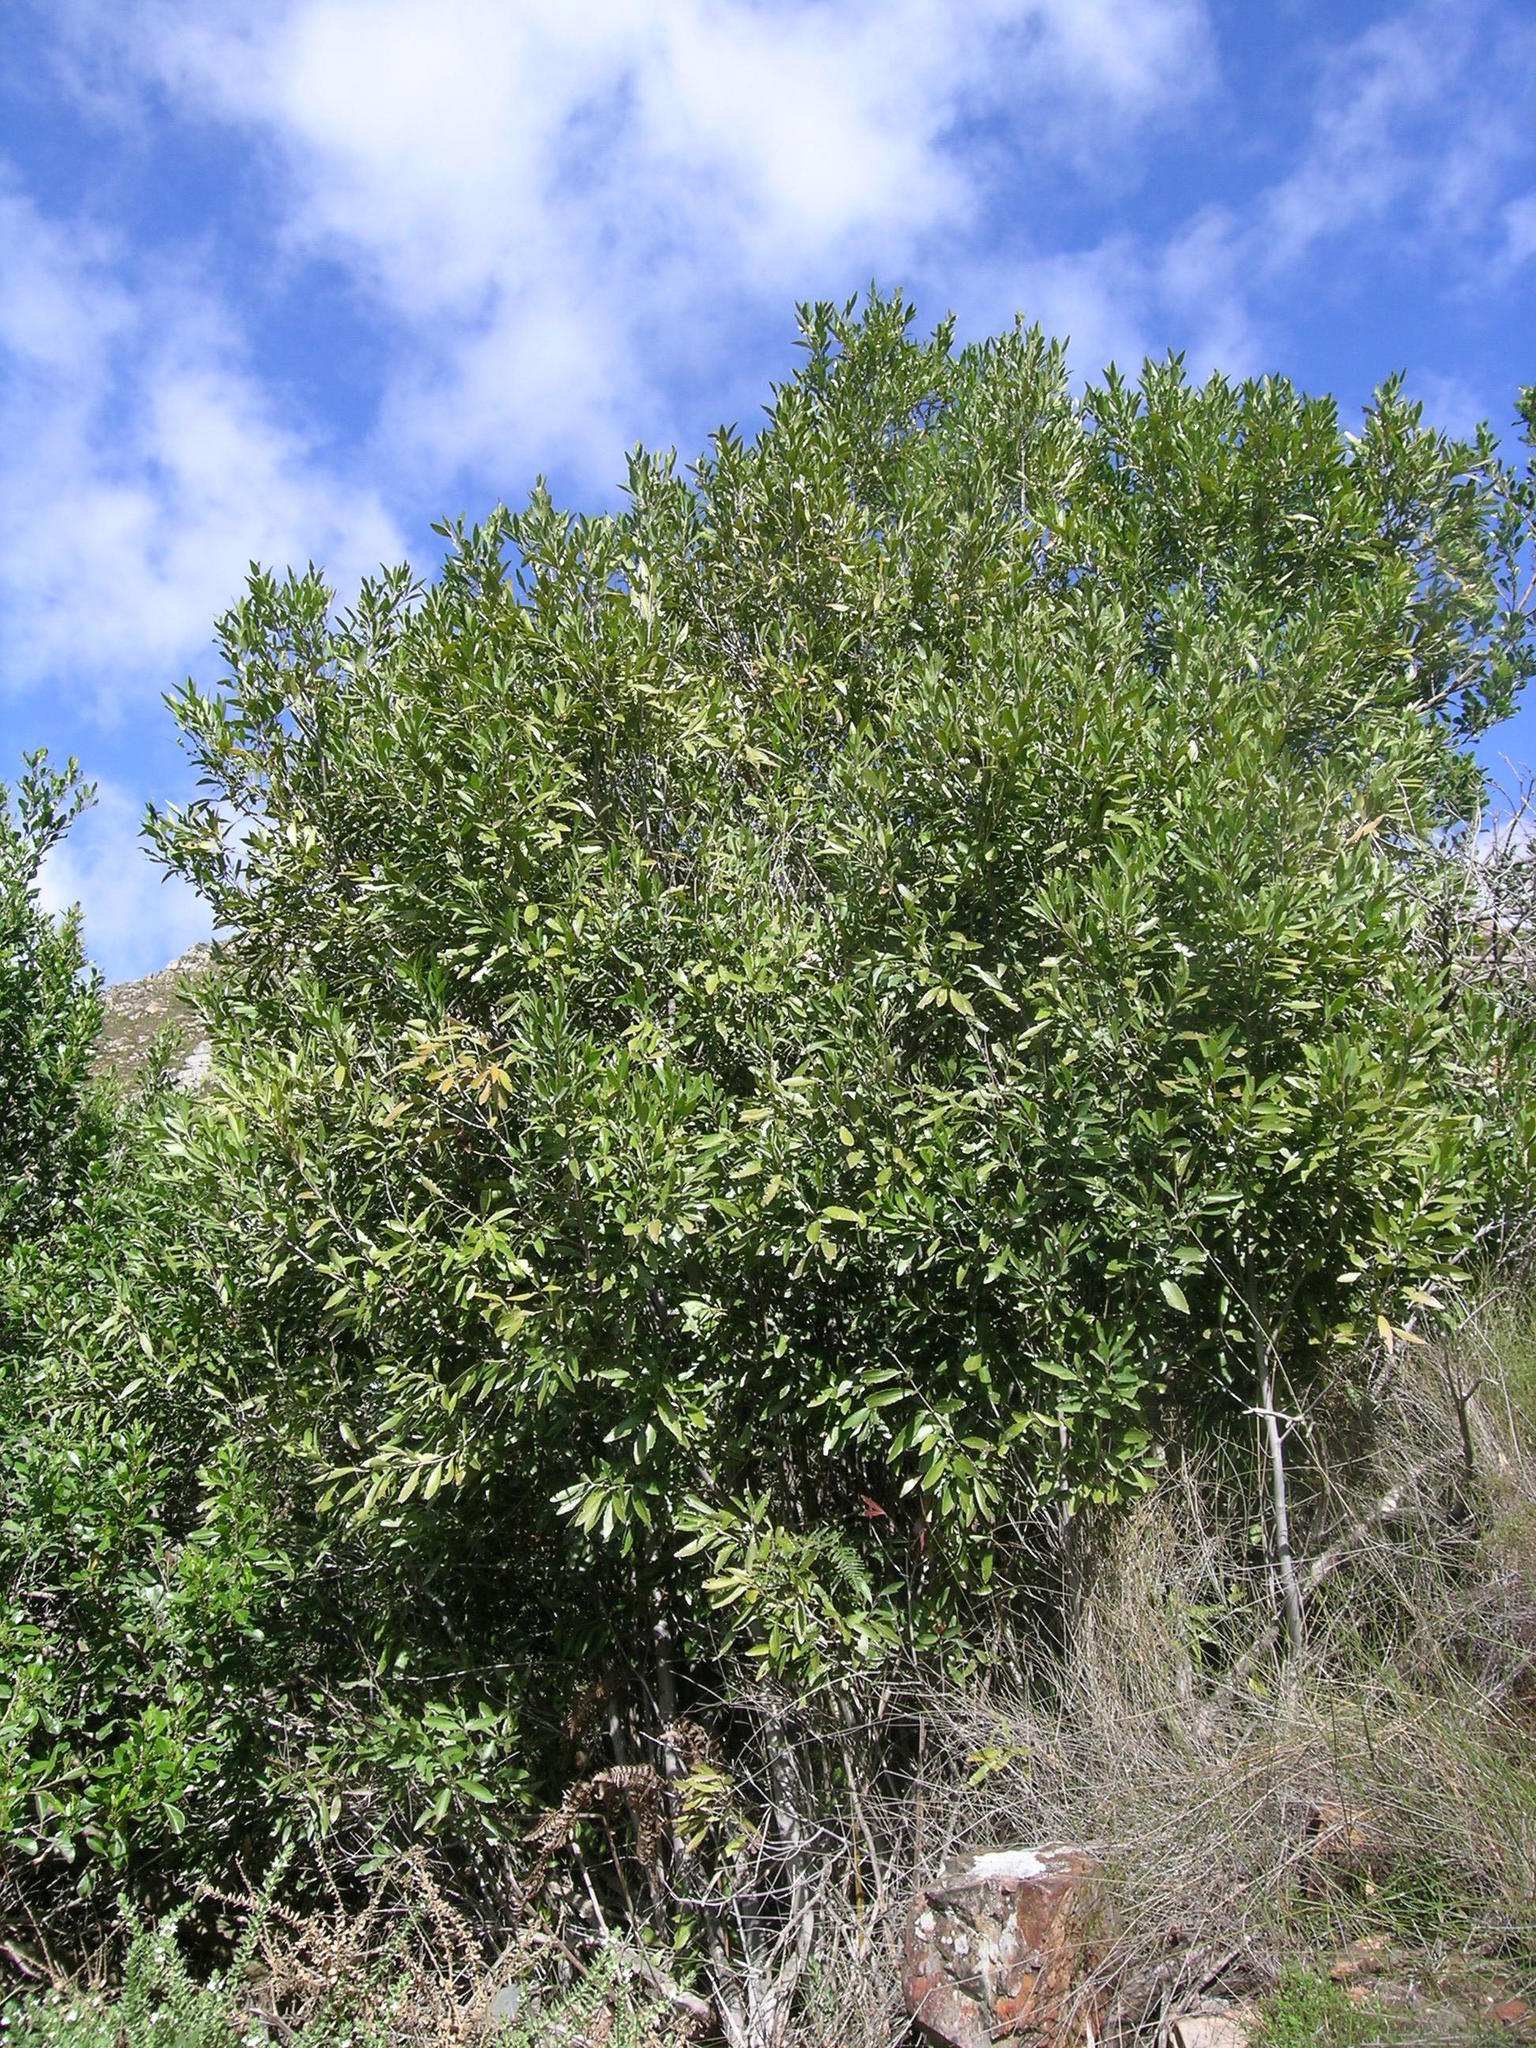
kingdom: Plantae
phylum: Tracheophyta
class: Magnoliopsida
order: Celastrales
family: Celastraceae
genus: Elaeodendron
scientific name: Elaeodendron schinoides
